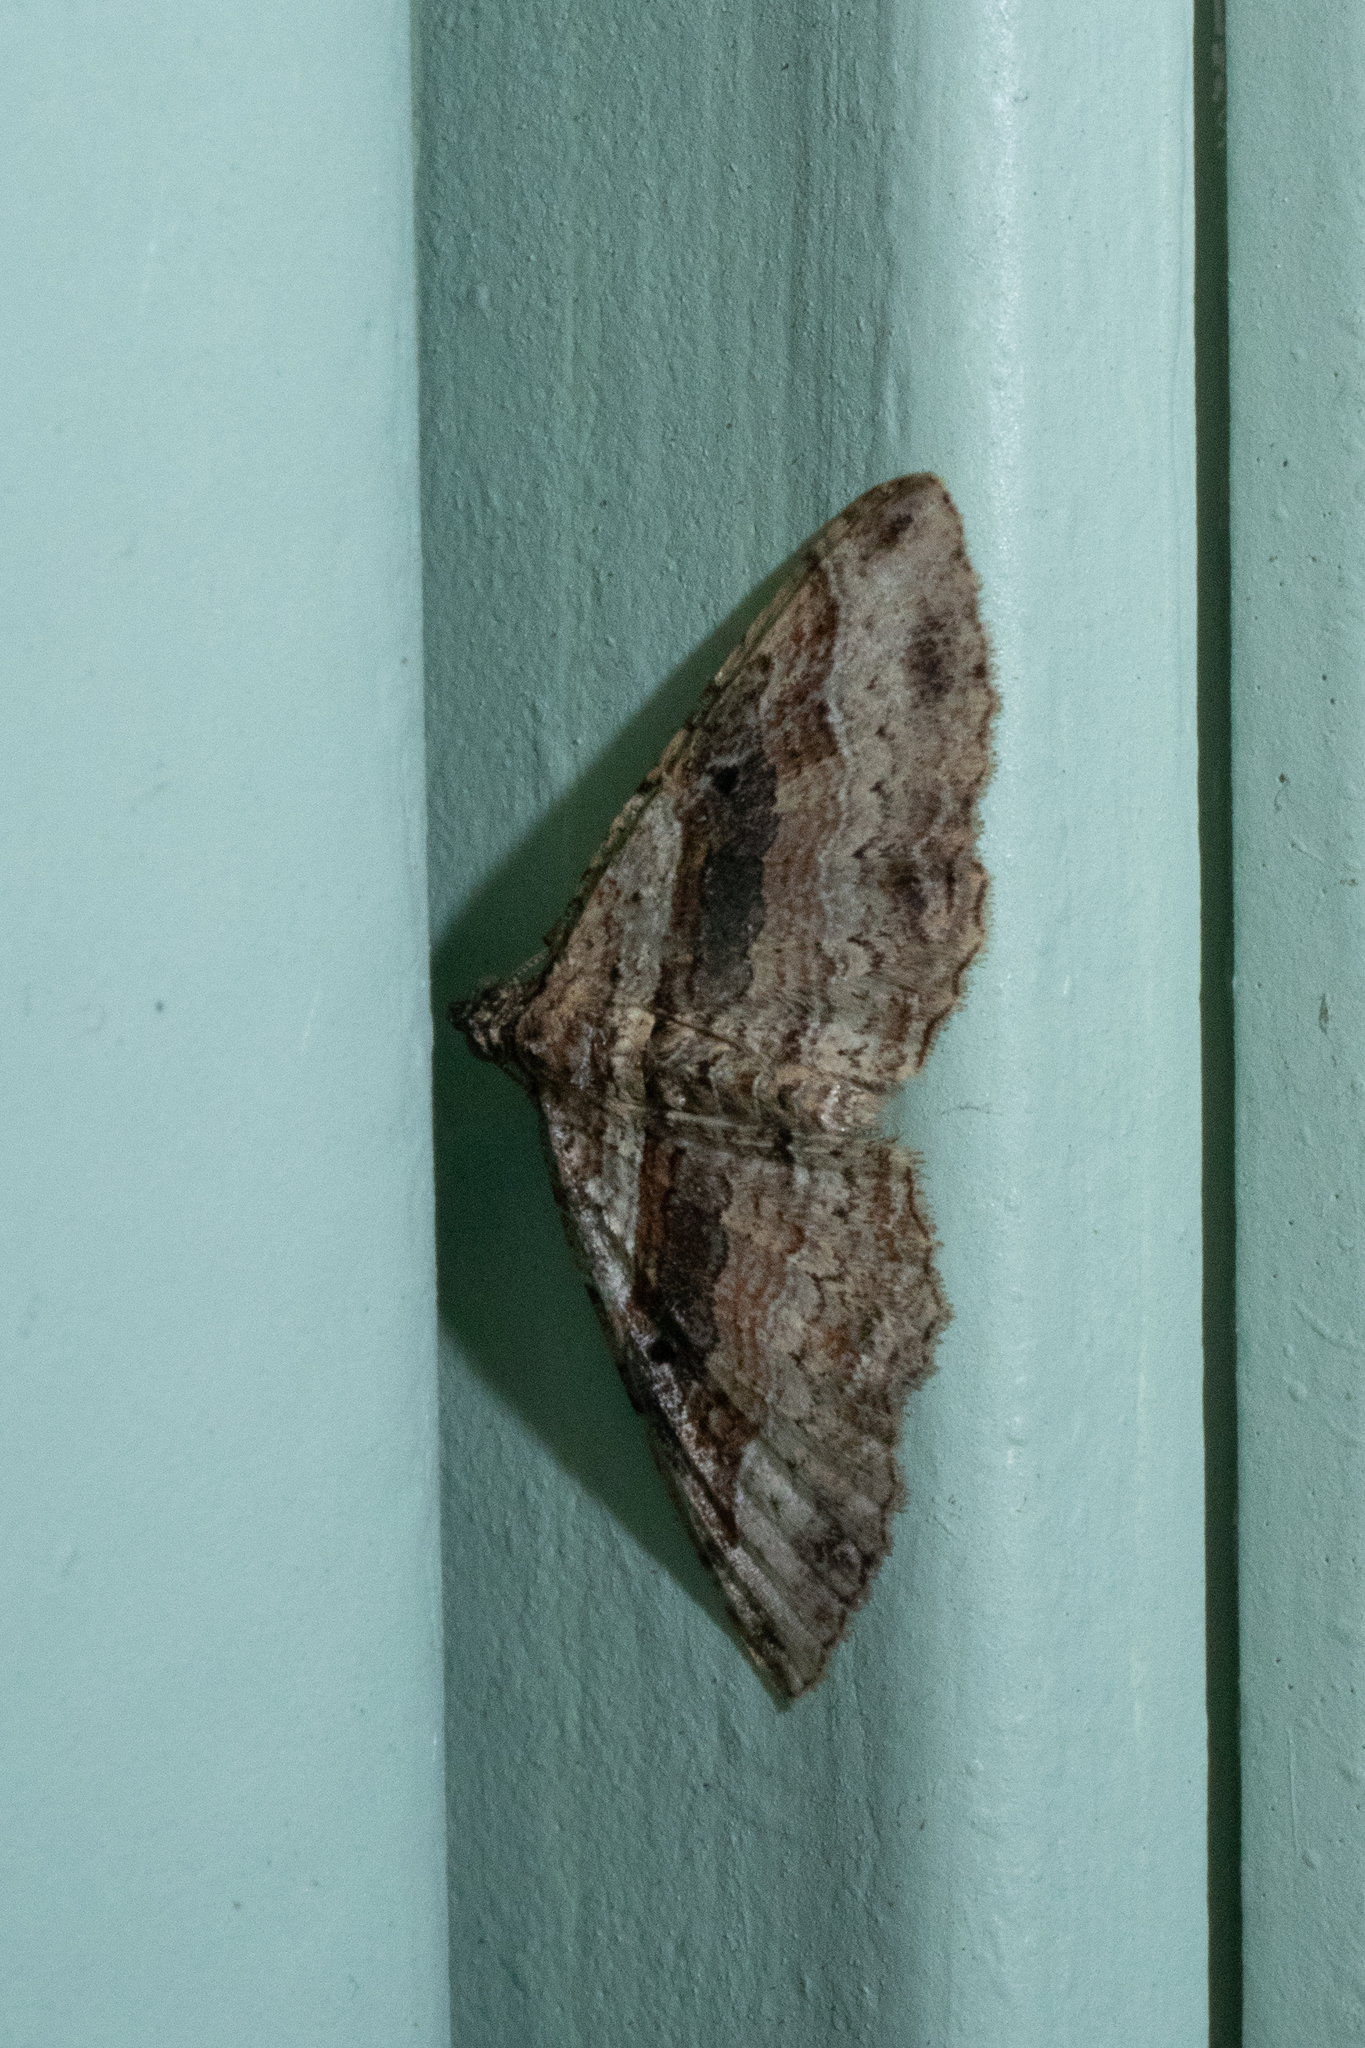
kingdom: Animalia
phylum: Arthropoda
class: Insecta
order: Lepidoptera
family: Geometridae
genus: Costaconvexa
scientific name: Costaconvexa centrostrigaria
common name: Bent-line carpet
